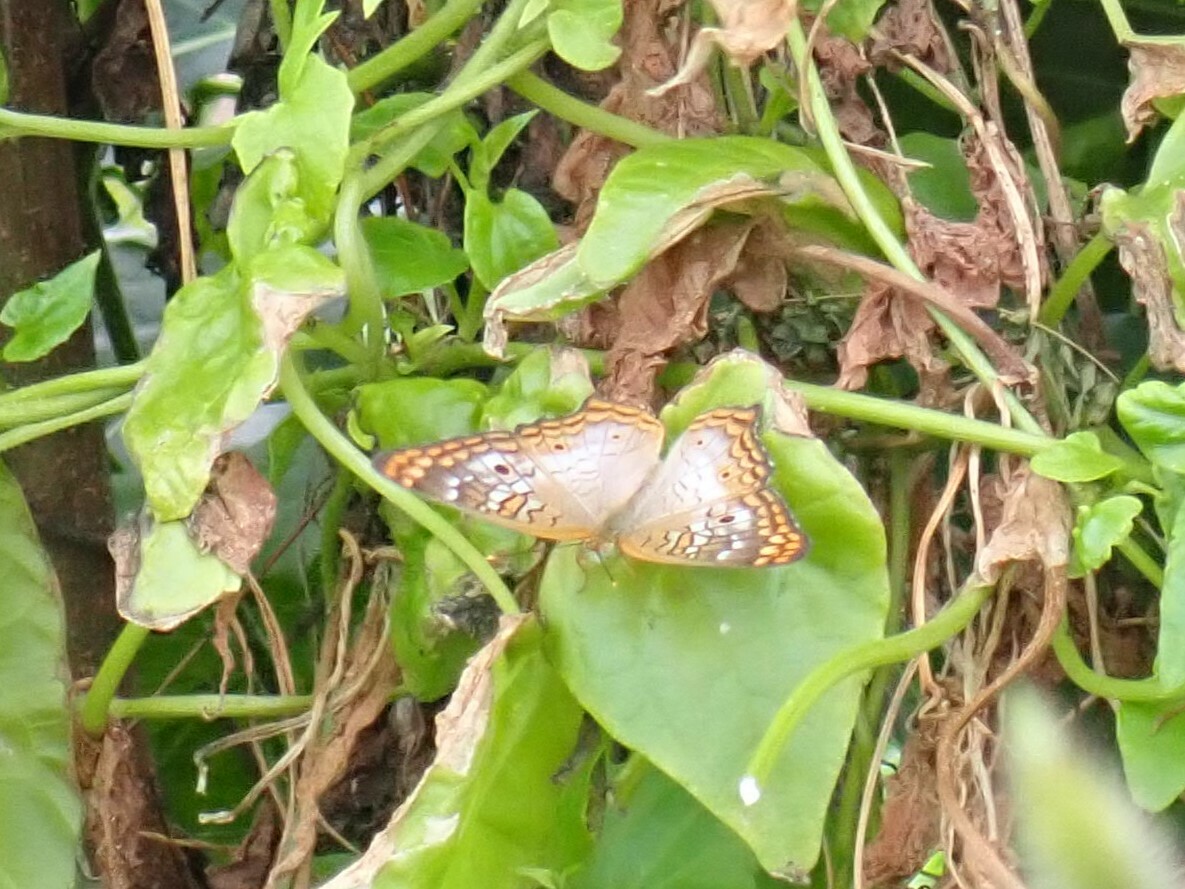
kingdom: Animalia
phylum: Arthropoda
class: Insecta
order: Lepidoptera
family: Nymphalidae
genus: Anartia
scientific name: Anartia jatrophae
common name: White peacock
